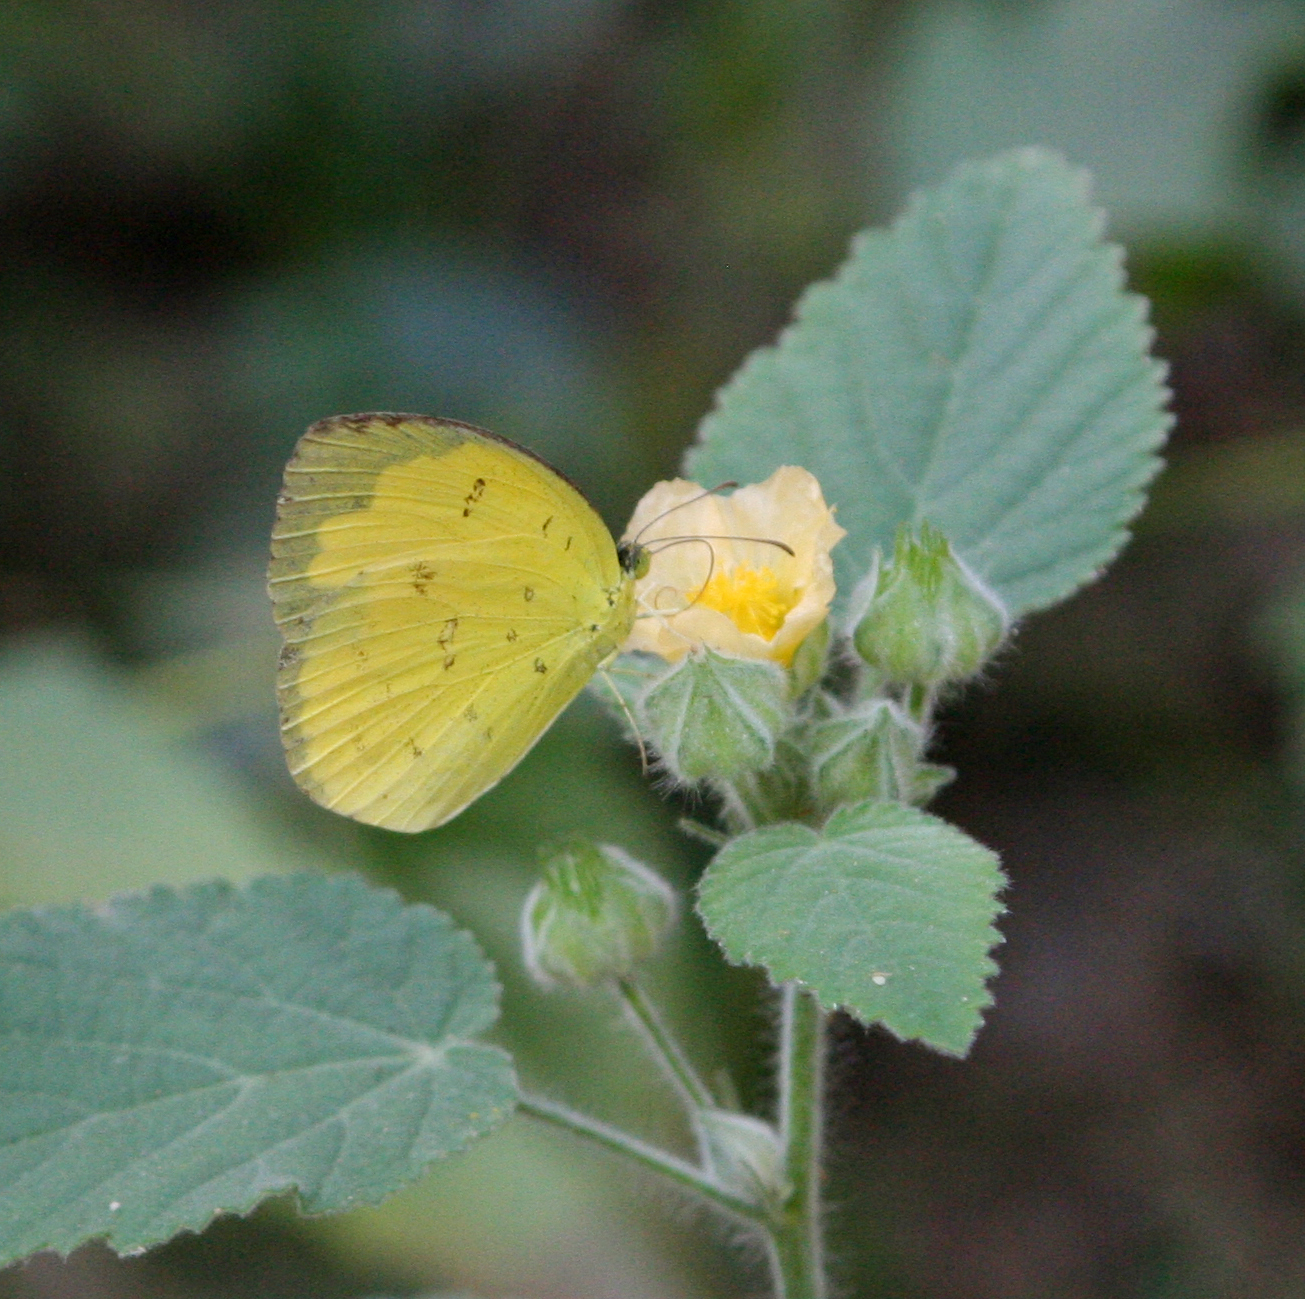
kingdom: Animalia
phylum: Arthropoda
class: Insecta
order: Lepidoptera
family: Pieridae
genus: Eurema
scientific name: Eurema hecabe
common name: Pale grass yellow
